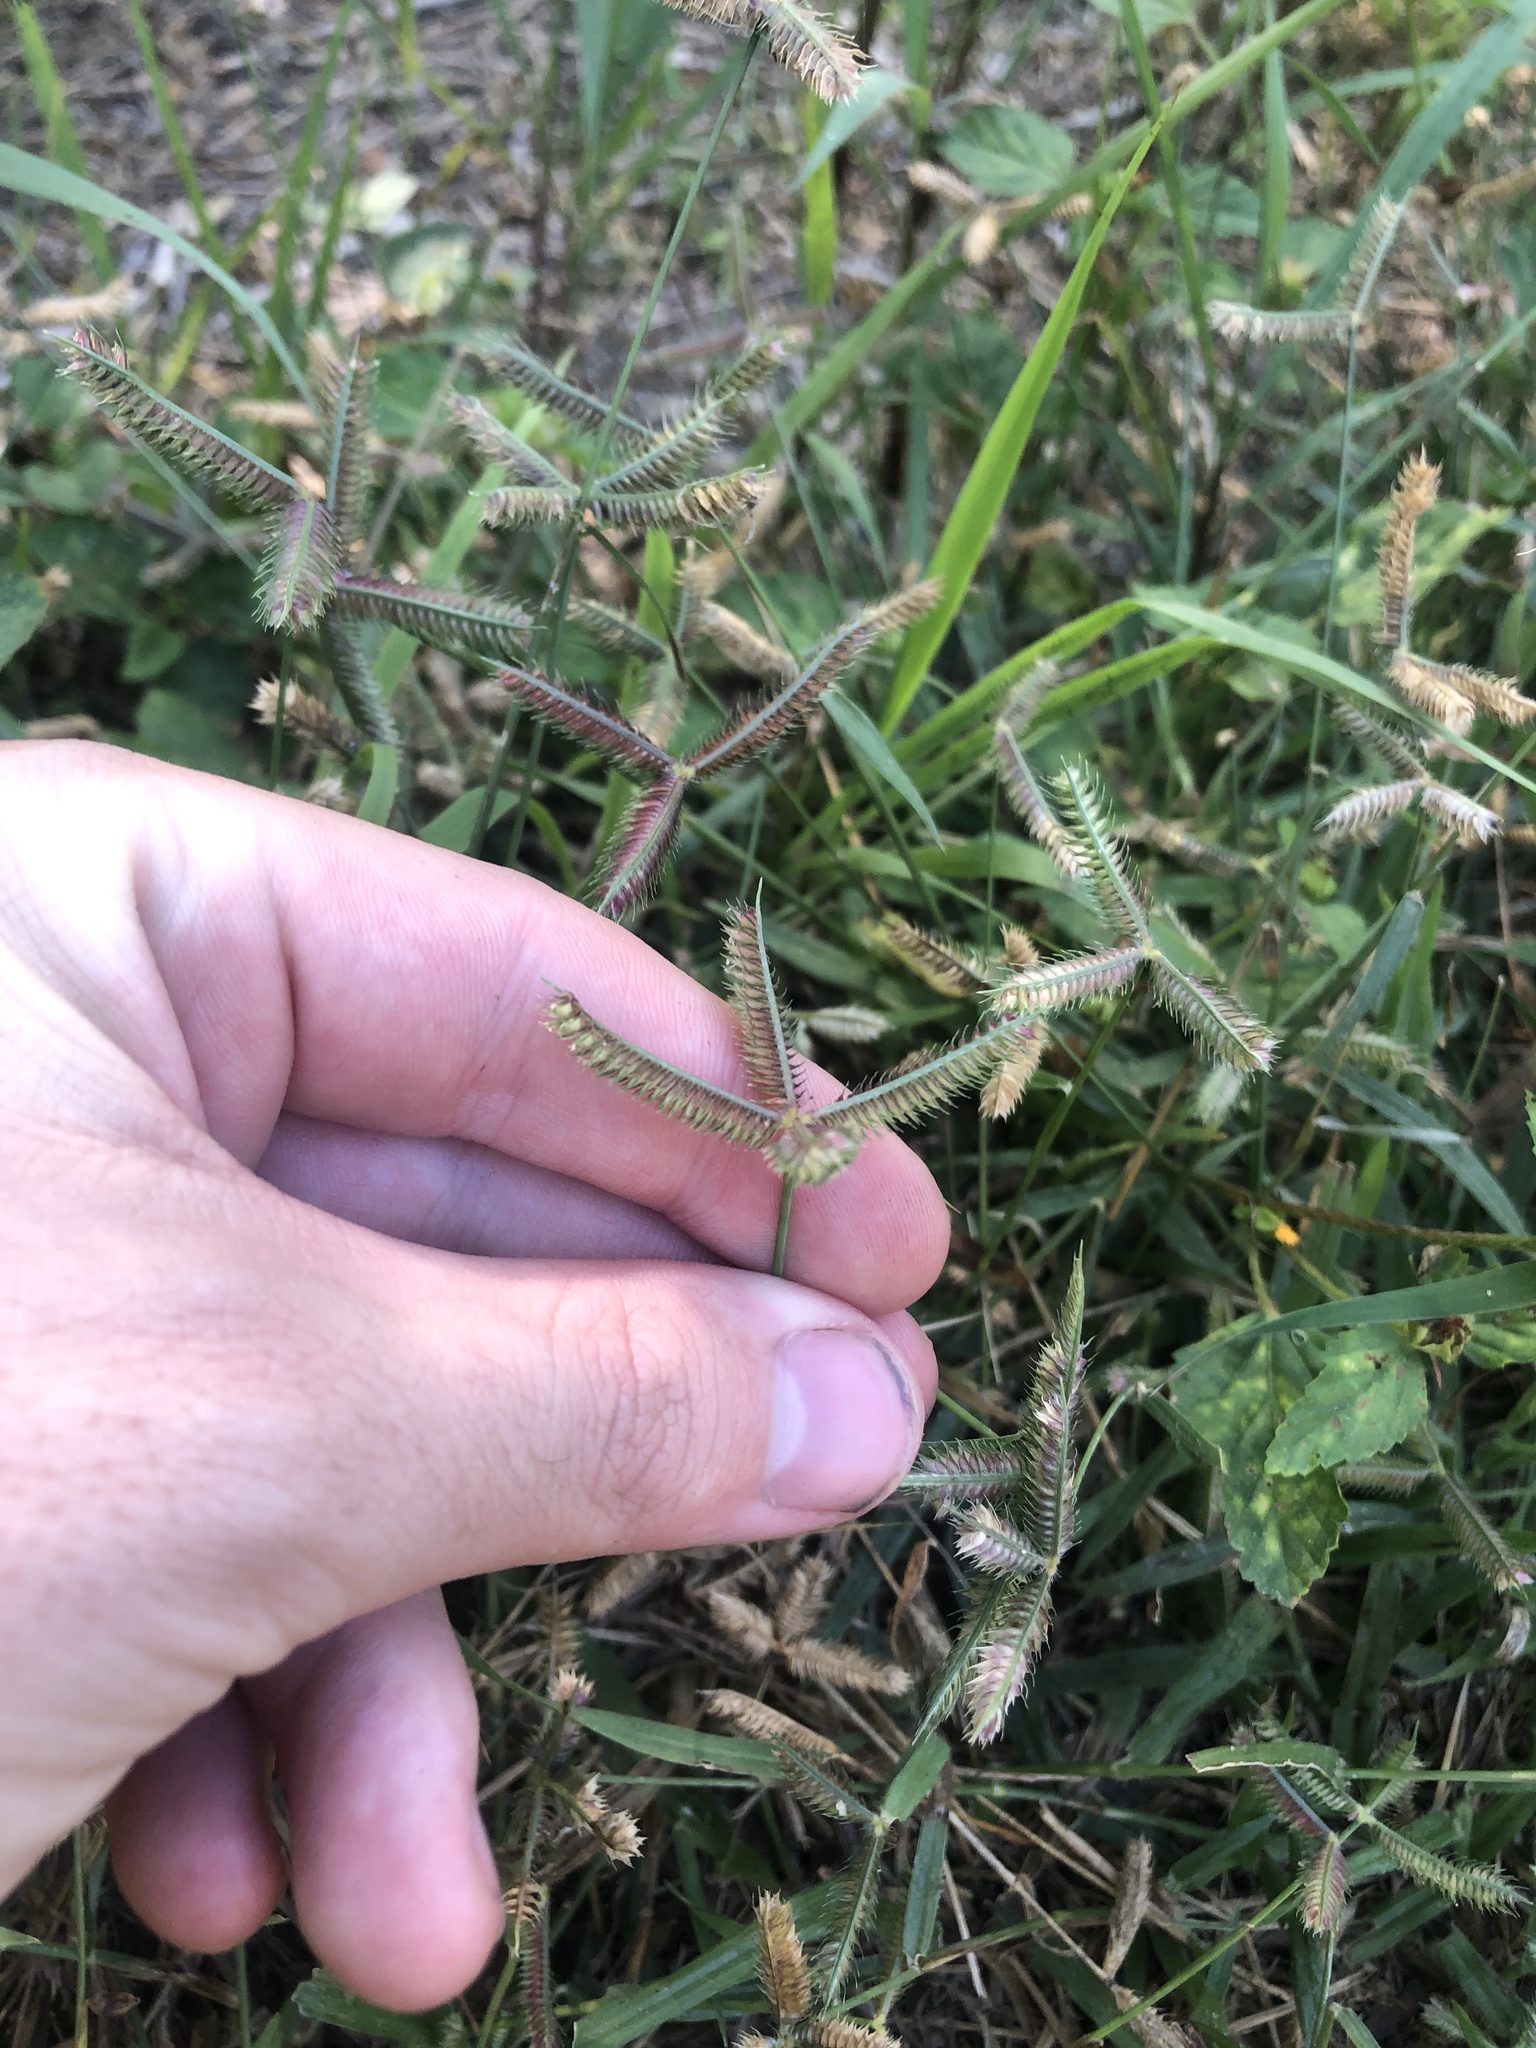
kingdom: Plantae
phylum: Tracheophyta
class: Liliopsida
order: Poales
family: Poaceae
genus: Dactyloctenium
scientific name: Dactyloctenium aegyptium
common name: Egyptian grass
